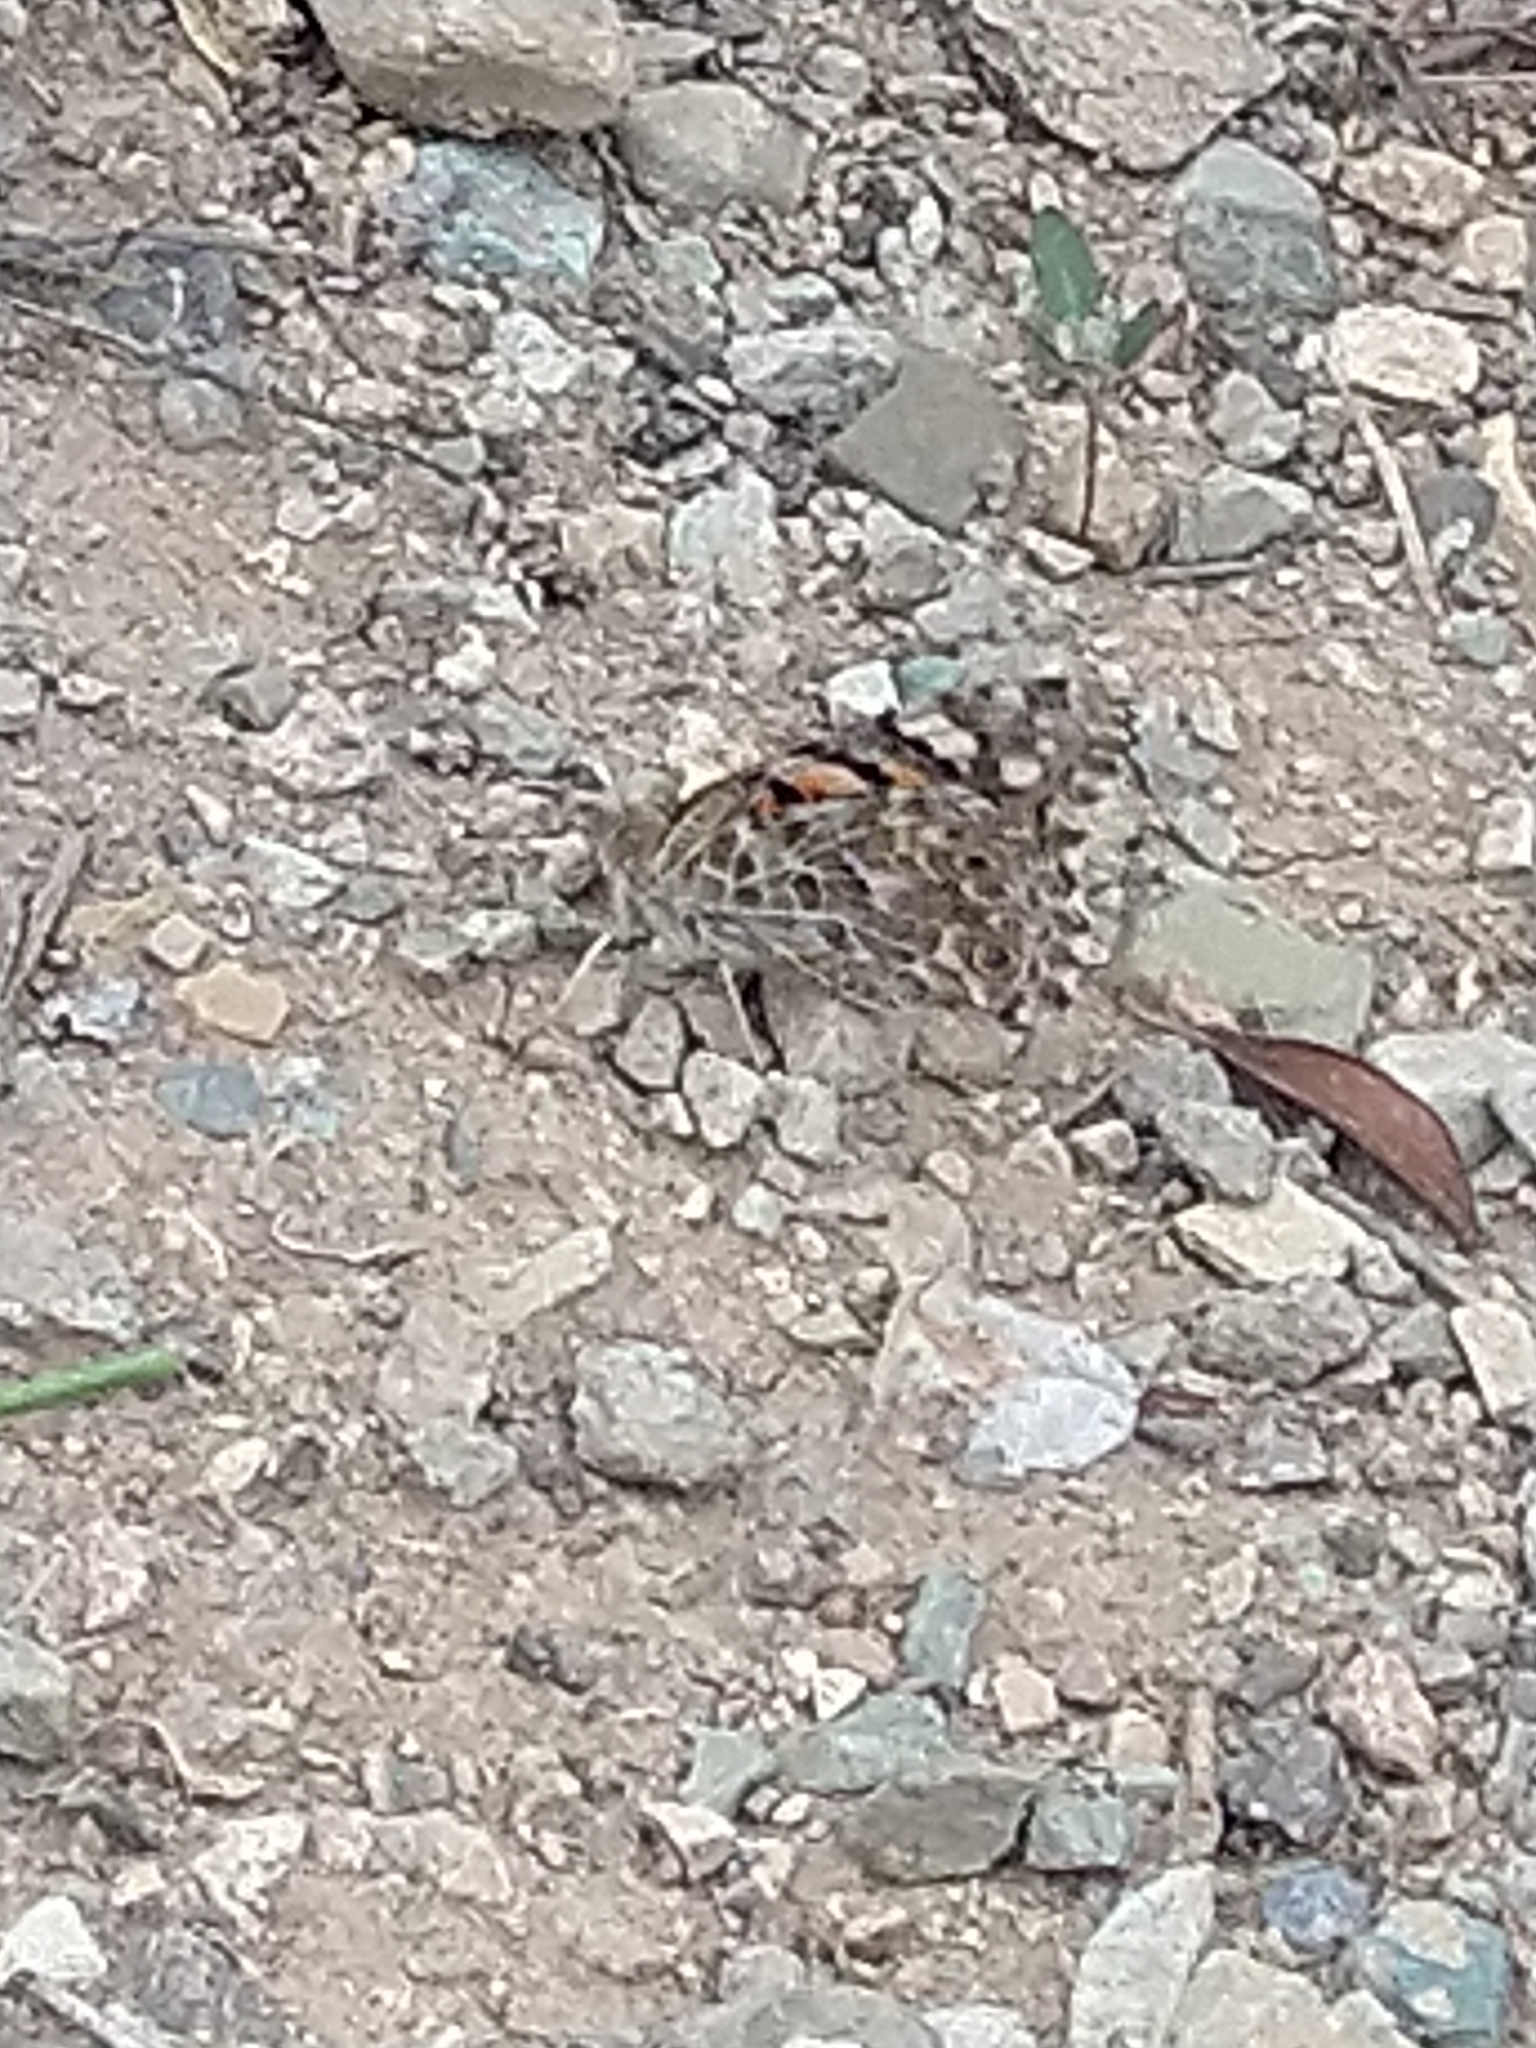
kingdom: Animalia
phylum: Arthropoda
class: Insecta
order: Lepidoptera
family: Nymphalidae
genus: Vanessa
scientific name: Vanessa cardui
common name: Painted lady
